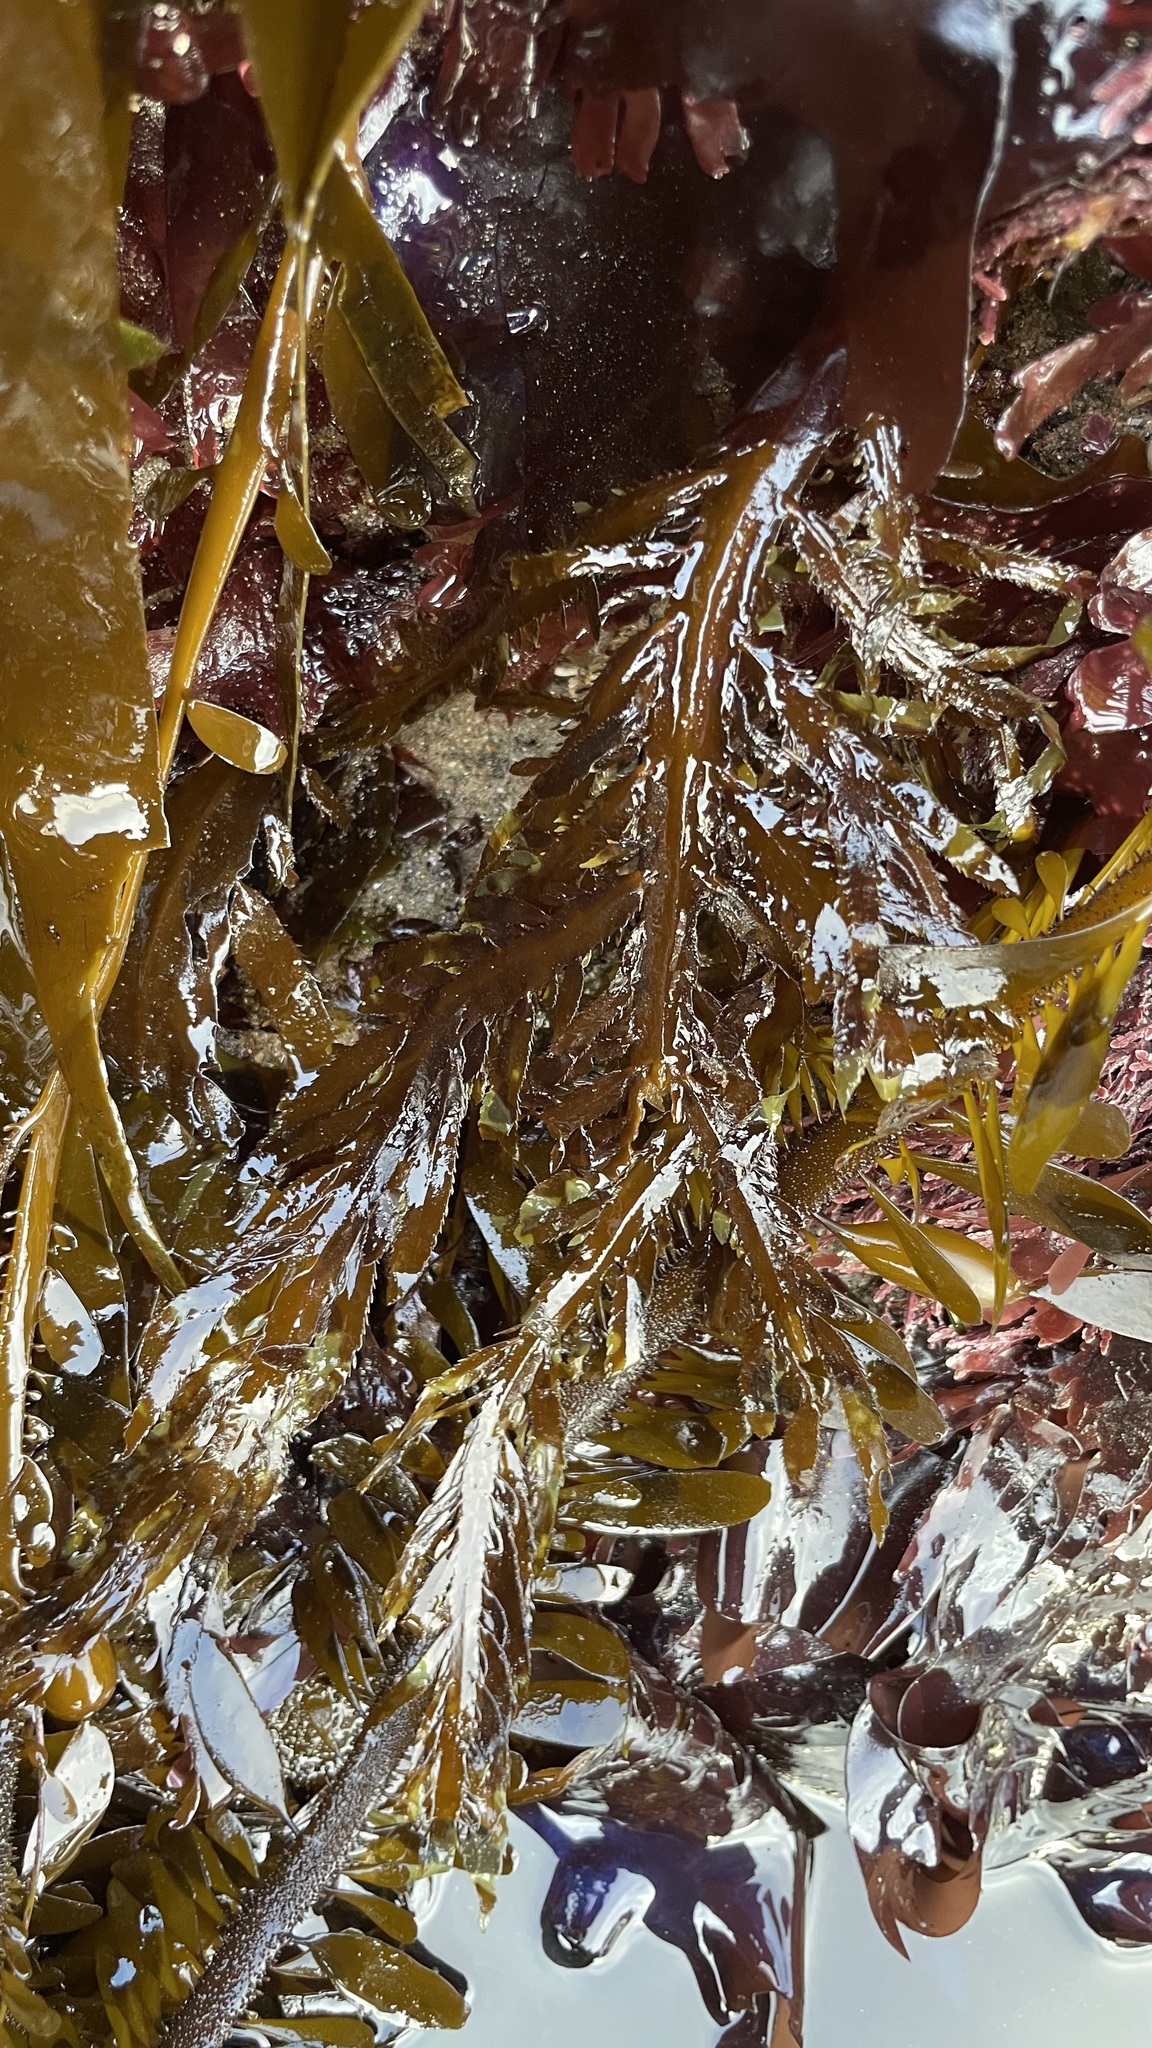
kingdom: Chromista
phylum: Ochrophyta
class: Phaeophyceae
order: Desmarestiales
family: Desmarestiaceae
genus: Desmarestia
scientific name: Desmarestia ligulata
